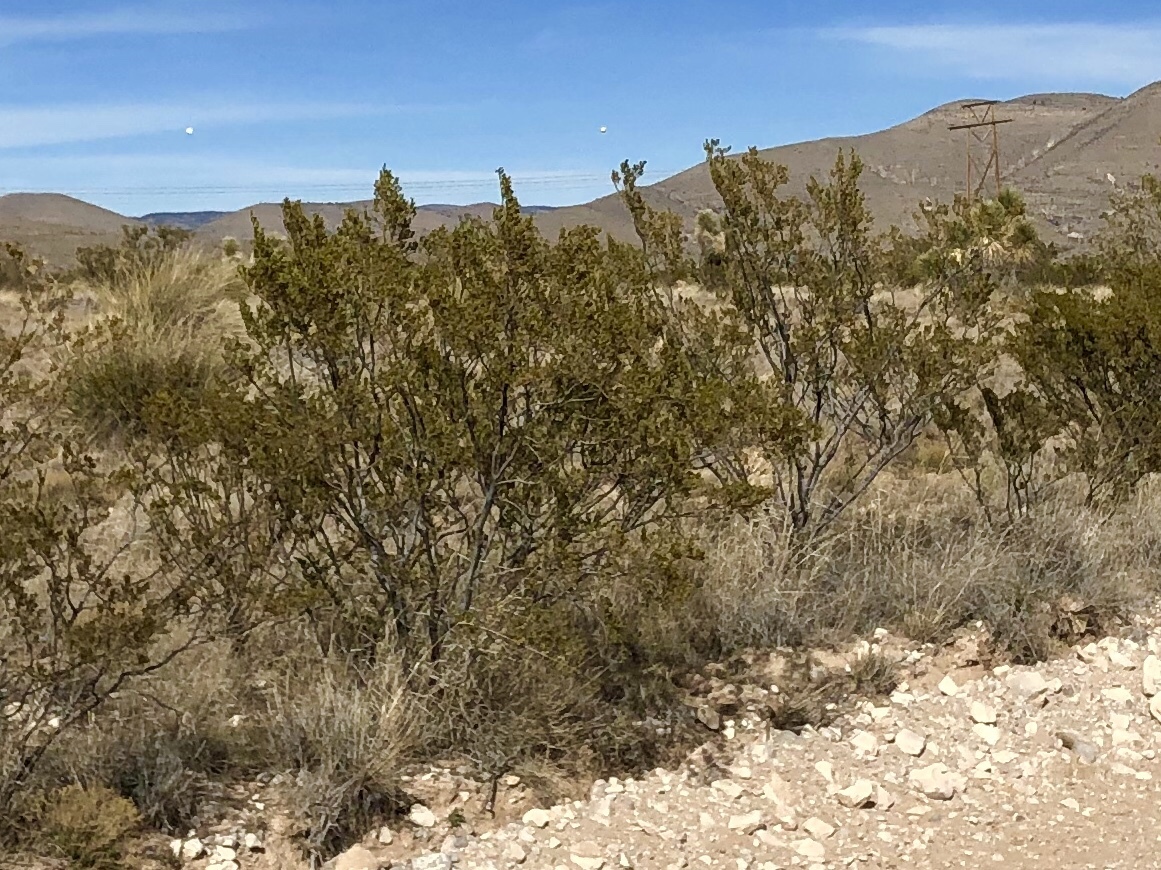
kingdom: Plantae
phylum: Tracheophyta
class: Magnoliopsida
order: Zygophyllales
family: Zygophyllaceae
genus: Larrea
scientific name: Larrea tridentata
